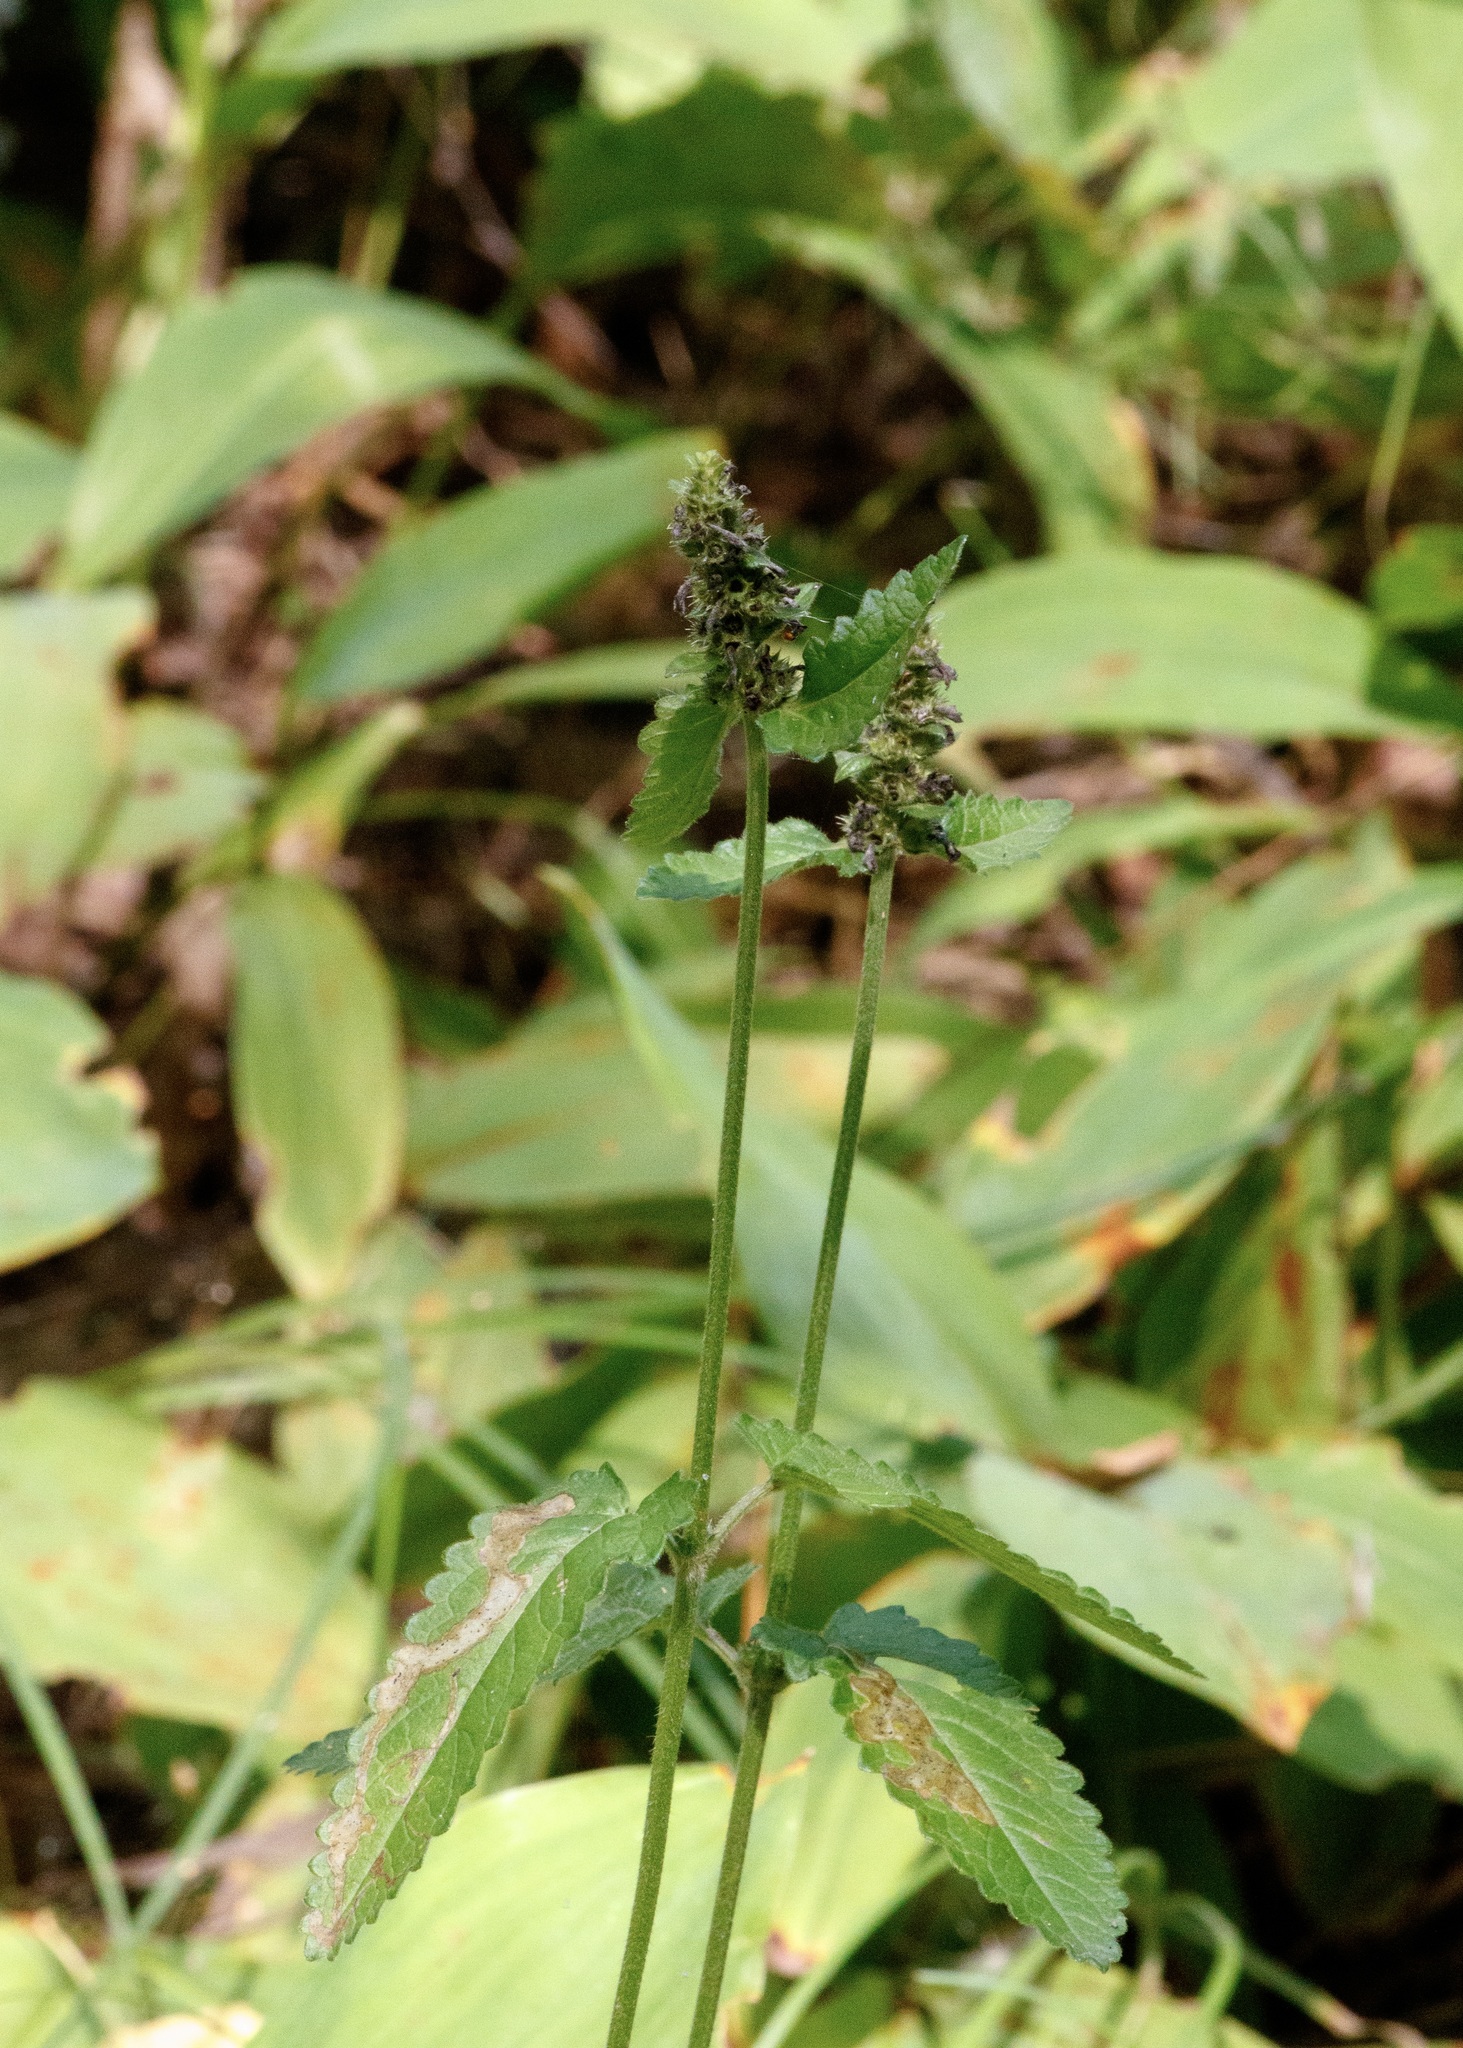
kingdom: Plantae
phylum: Tracheophyta
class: Magnoliopsida
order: Lamiales
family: Lamiaceae
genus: Betonica
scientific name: Betonica officinalis
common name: Bishop's-wort
